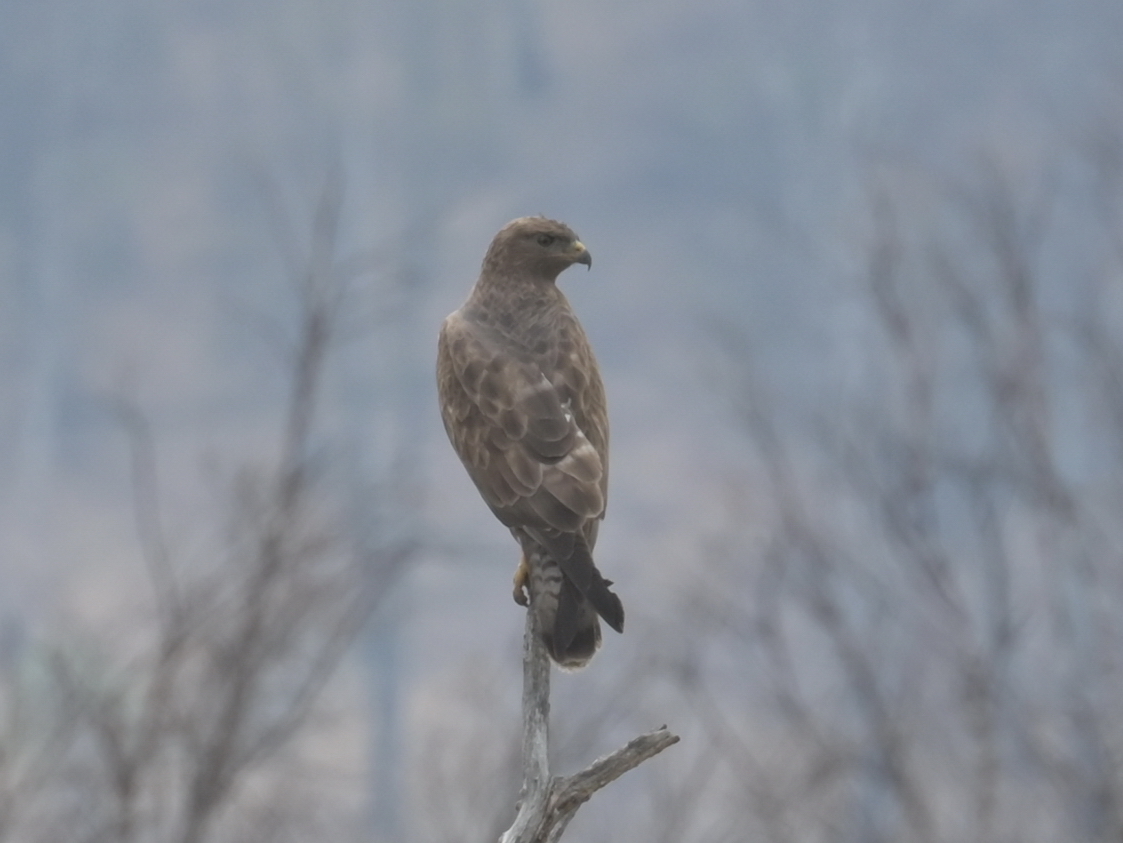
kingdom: Animalia
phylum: Chordata
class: Aves
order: Accipitriformes
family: Accipitridae
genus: Buteo
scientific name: Buteo buteo
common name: Common buzzard
